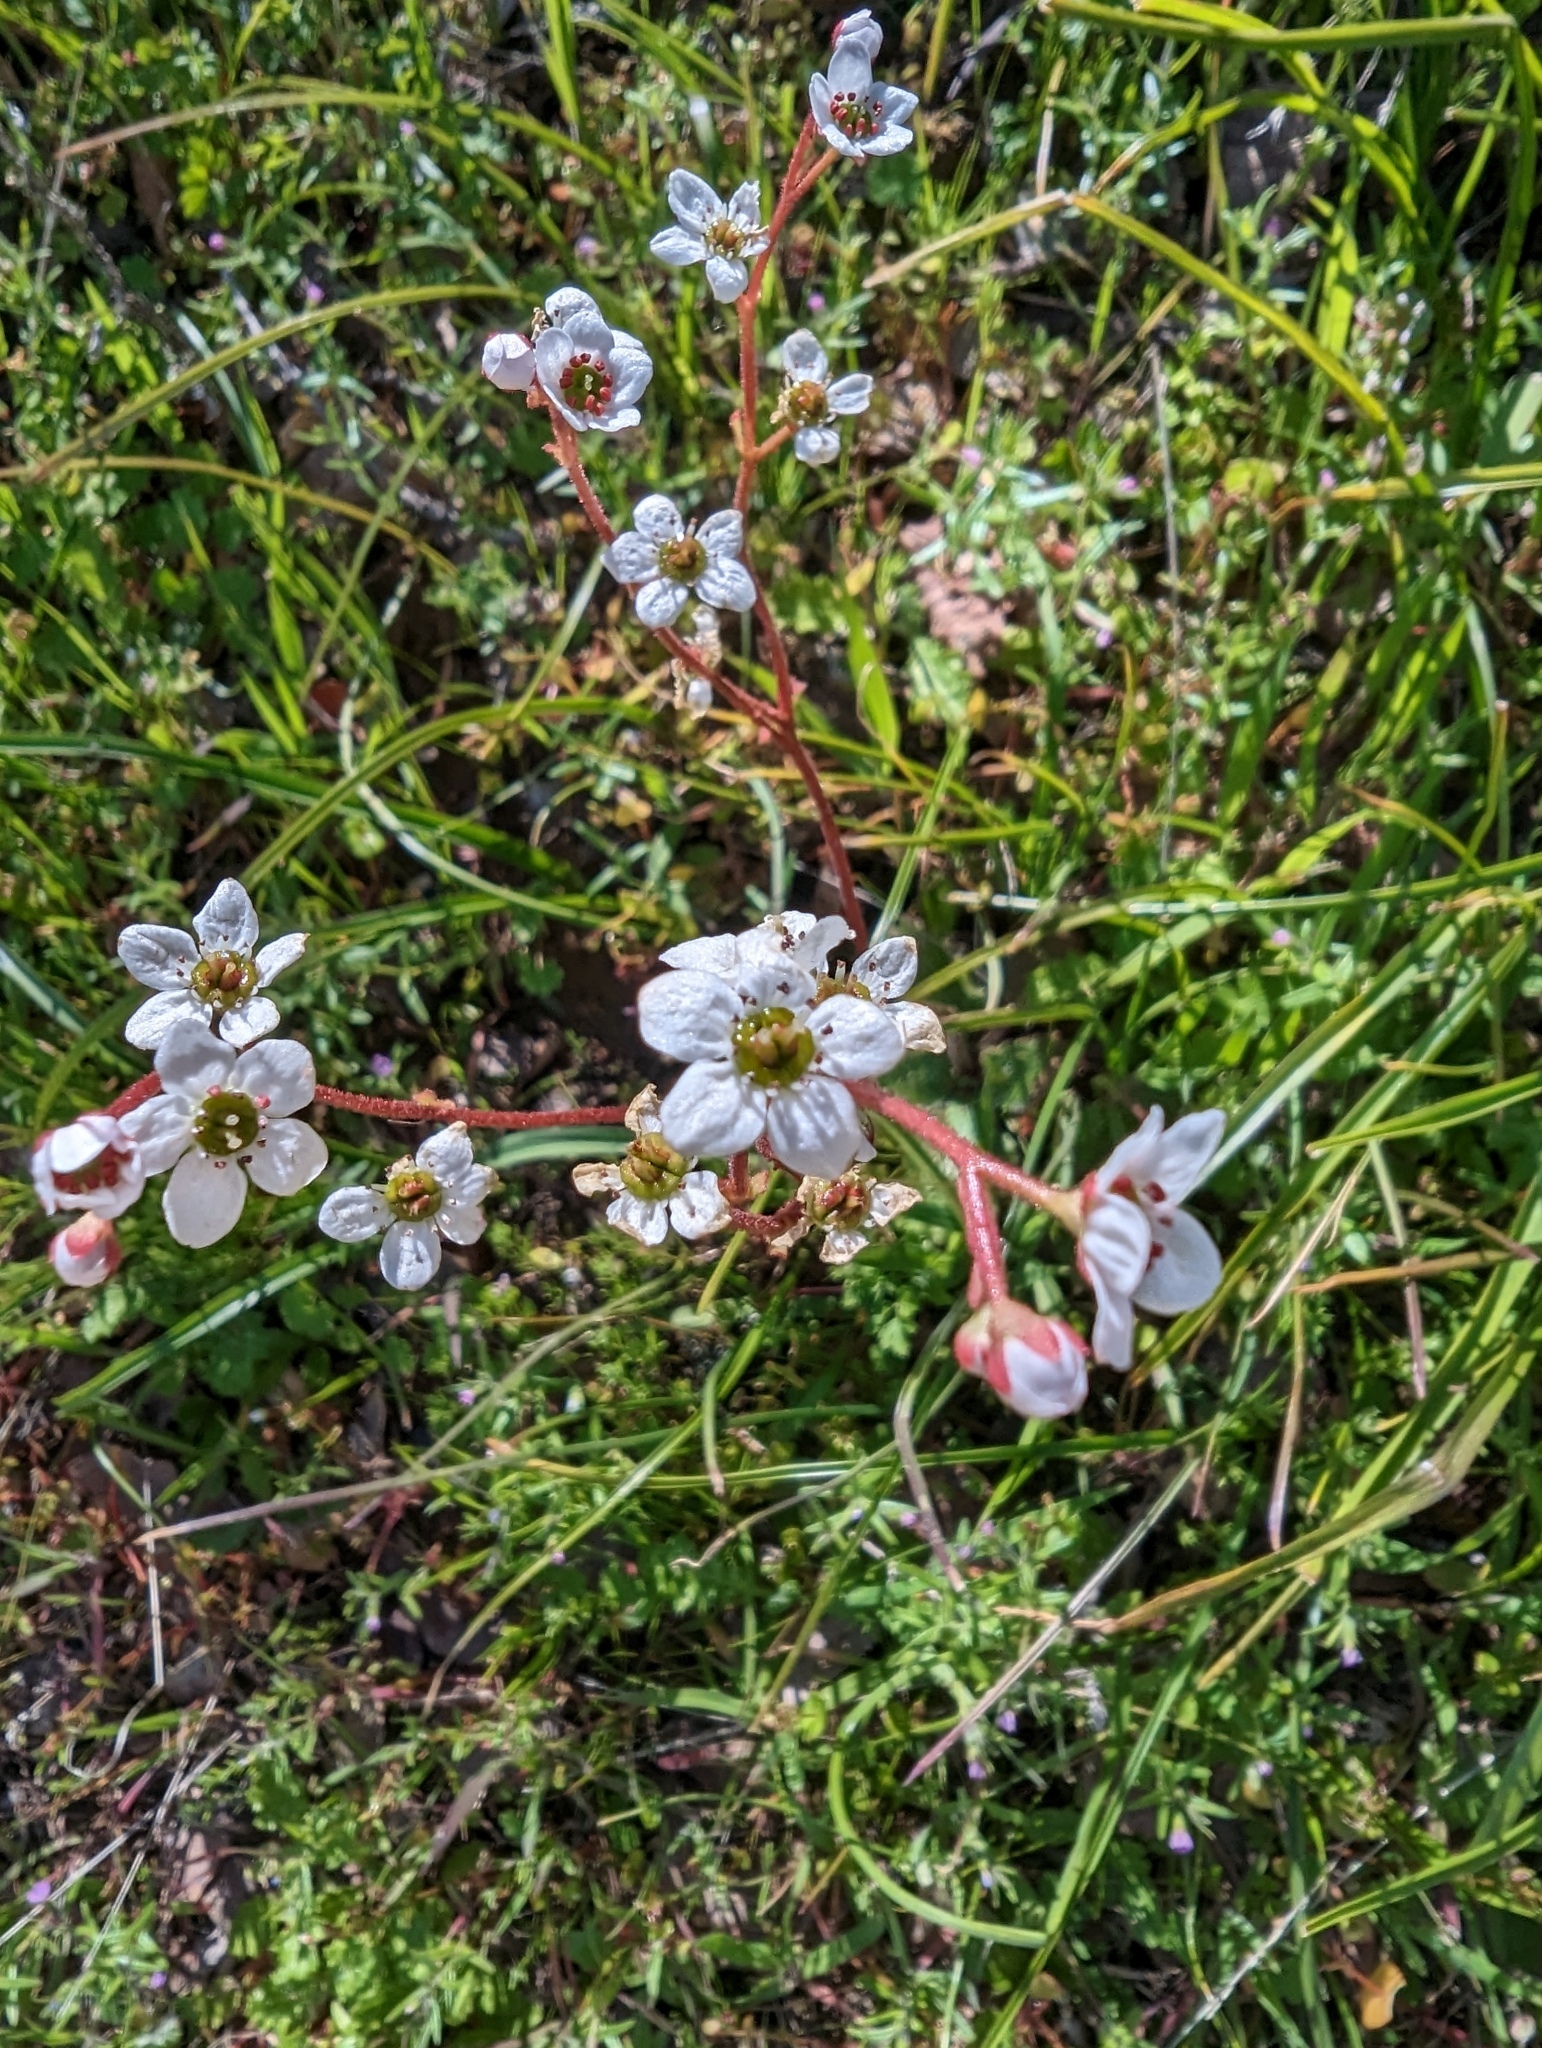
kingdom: Plantae
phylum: Tracheophyta
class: Magnoliopsida
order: Saxifragales
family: Saxifragaceae
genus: Micranthes
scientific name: Micranthes californica
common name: California saxifrage
